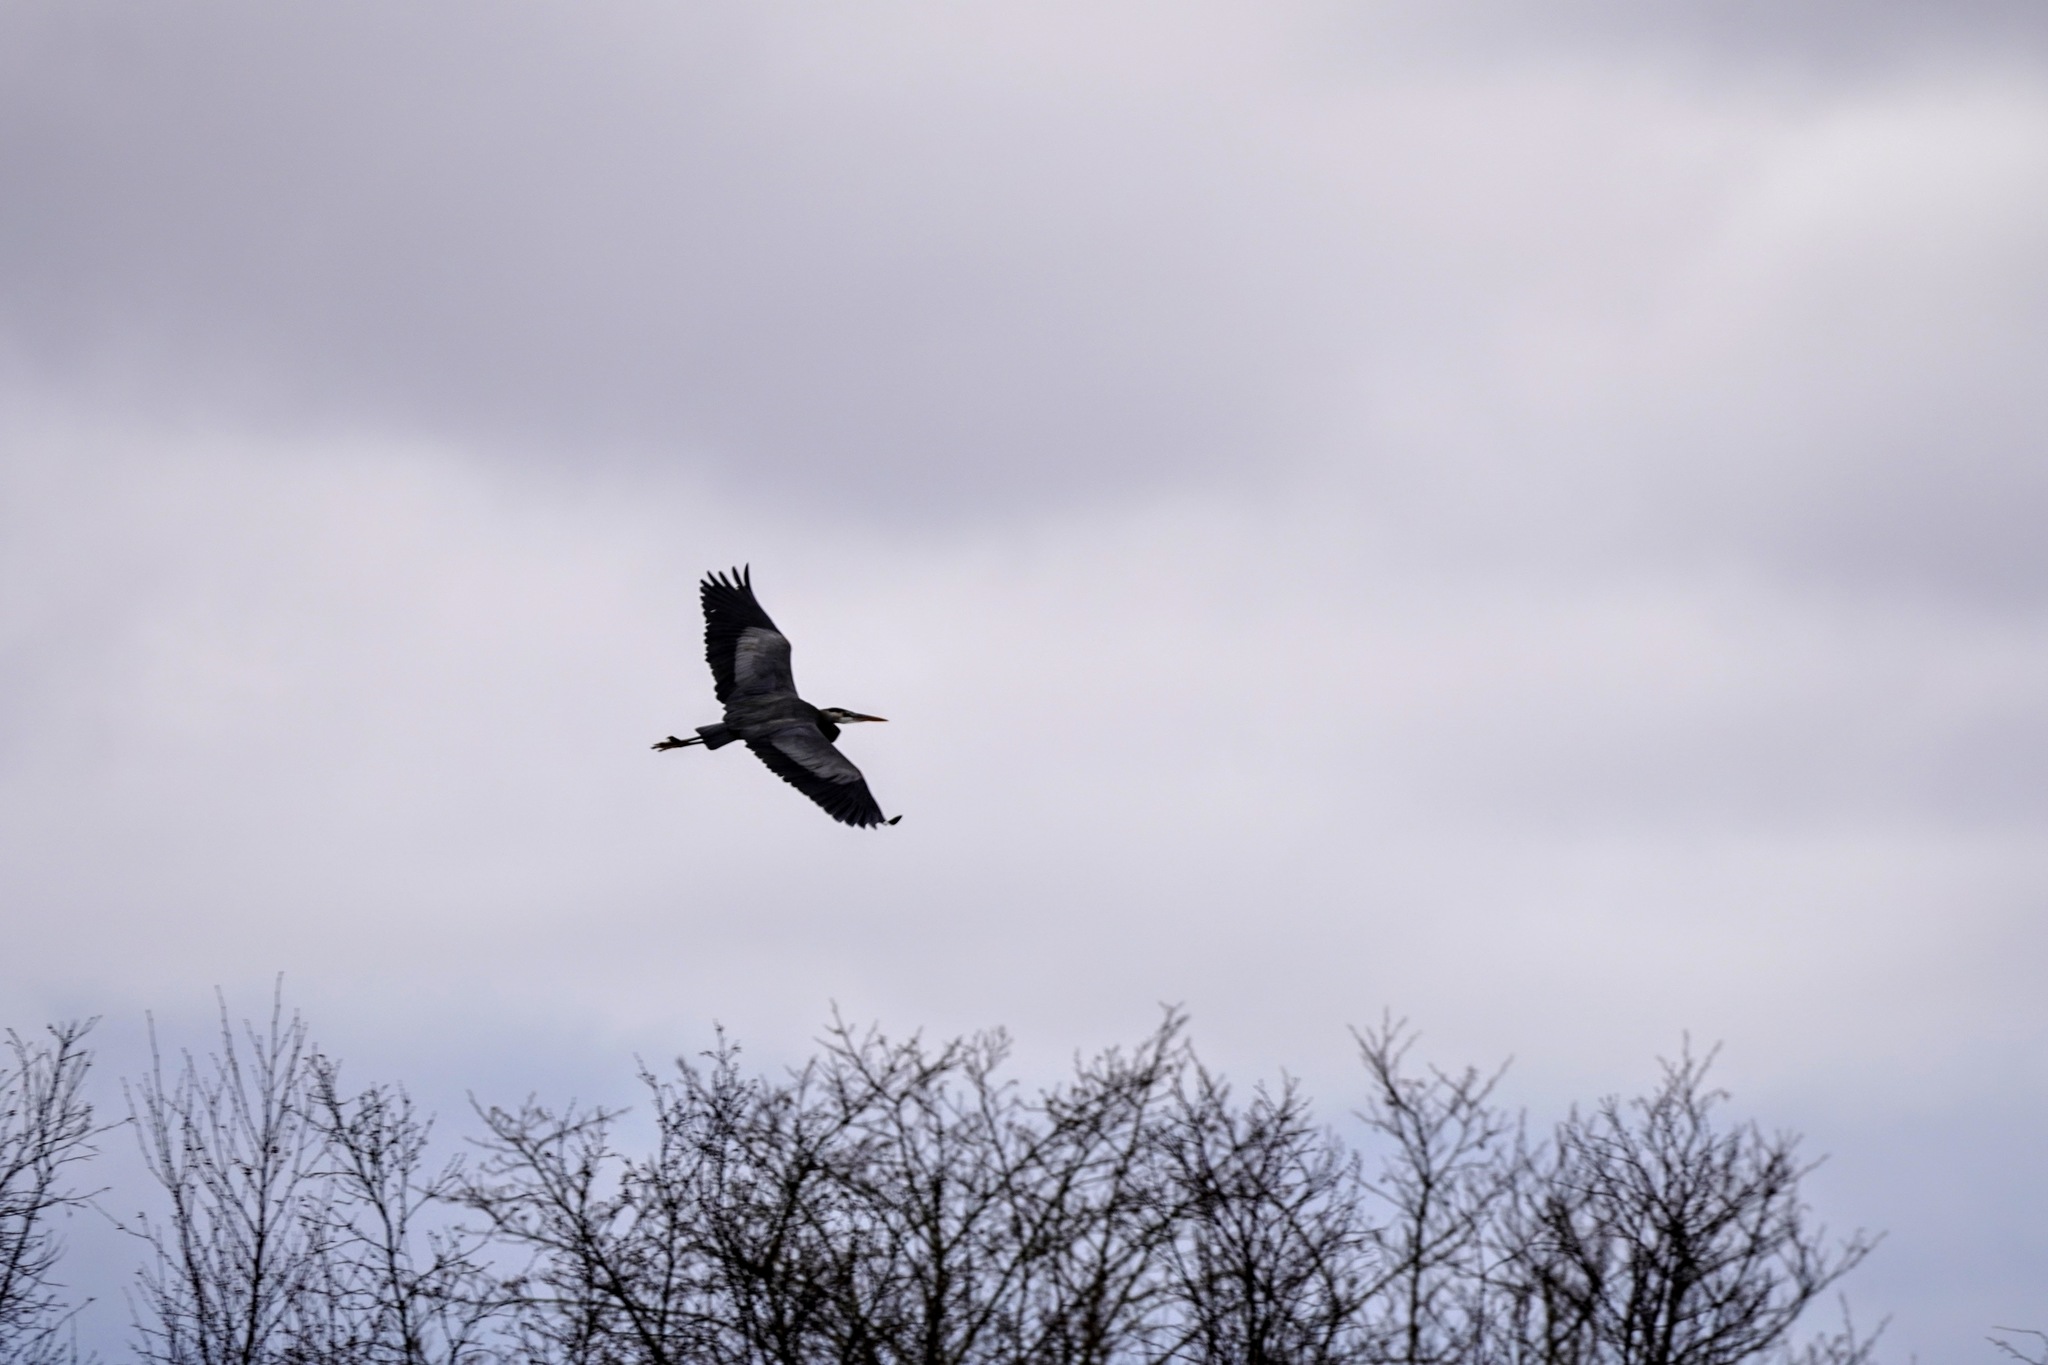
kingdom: Animalia
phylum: Chordata
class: Aves
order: Pelecaniformes
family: Ardeidae
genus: Ardea
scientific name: Ardea herodias
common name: Great blue heron
